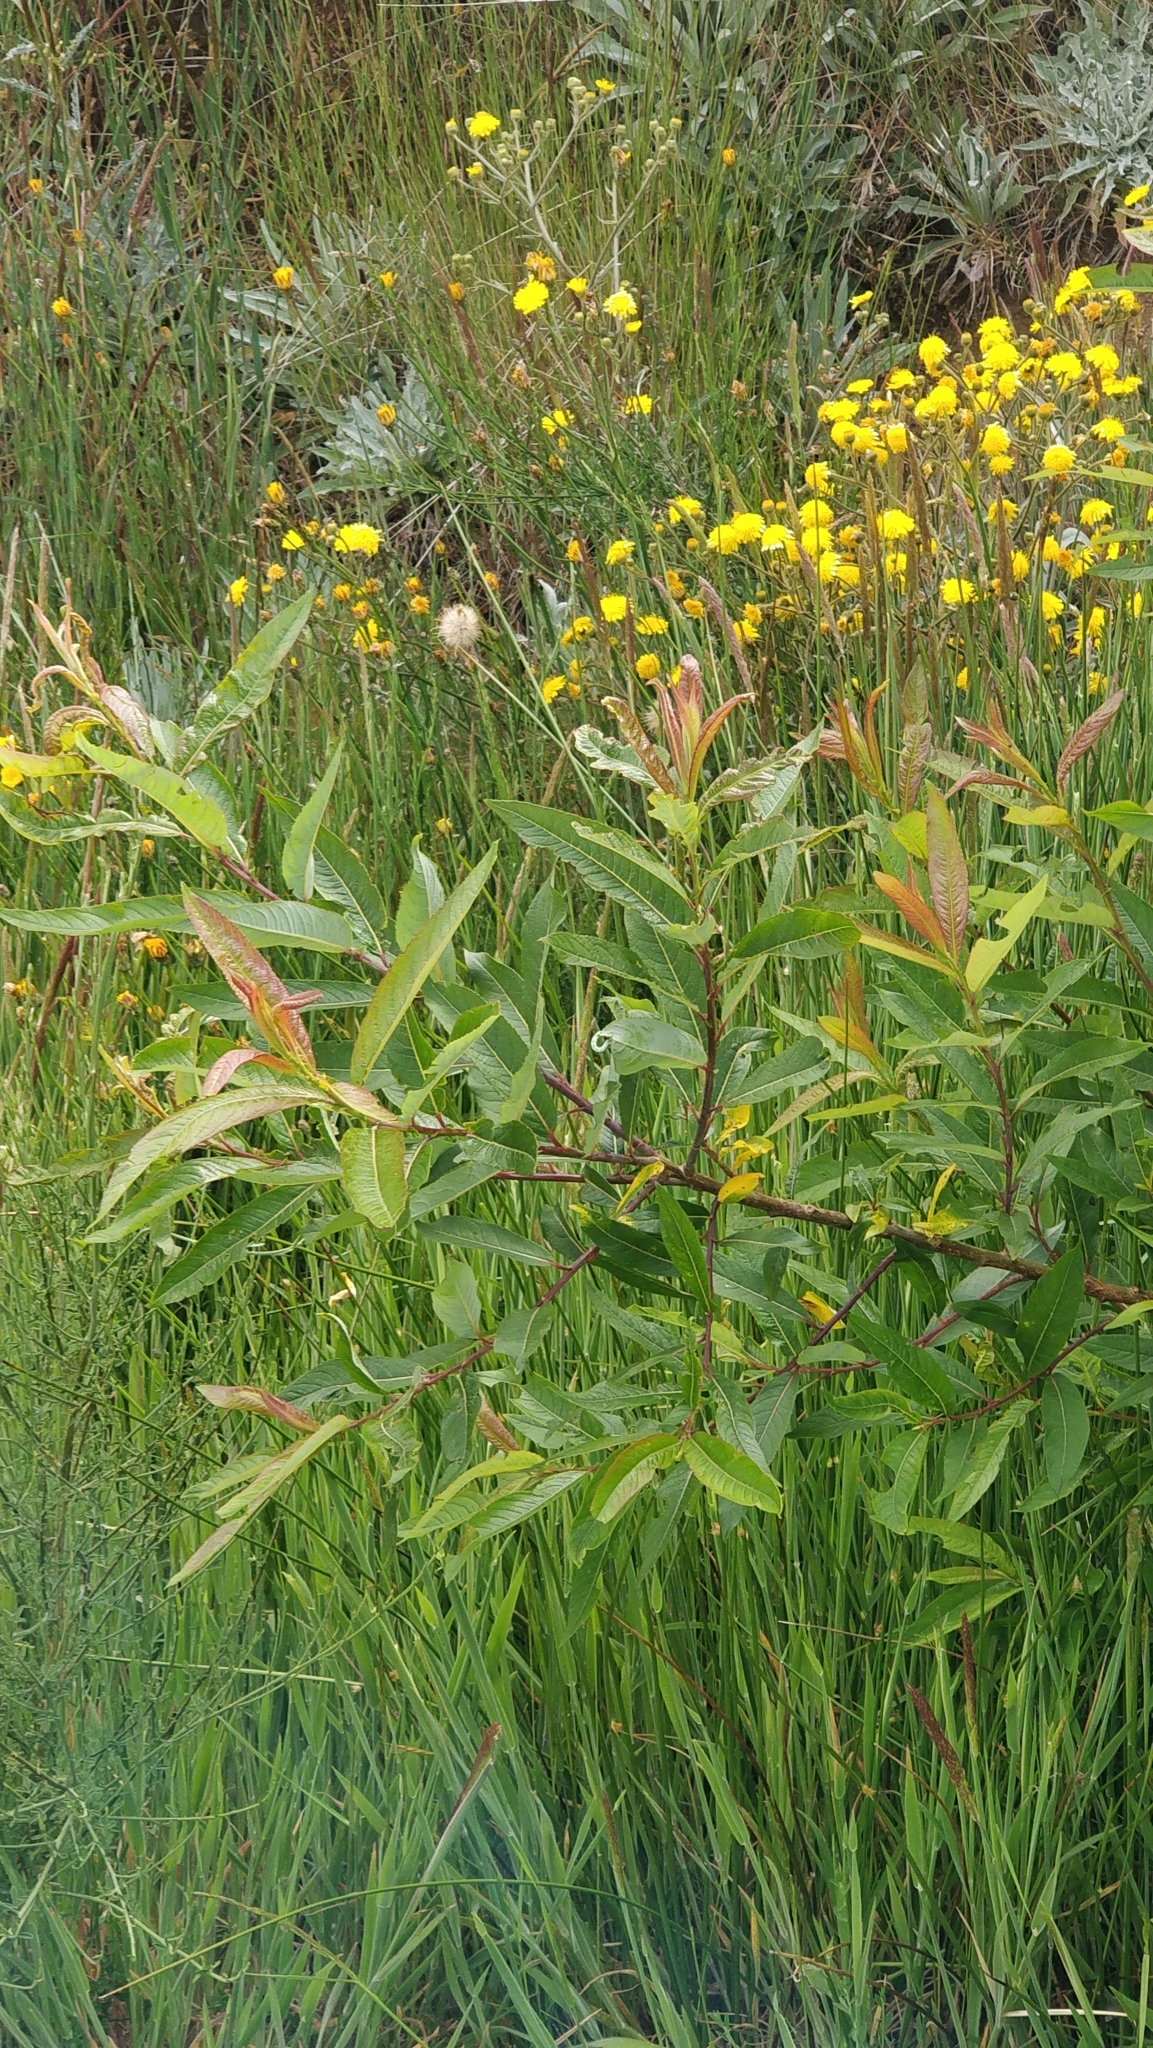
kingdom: Plantae
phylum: Tracheophyta
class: Magnoliopsida
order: Malpighiales
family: Salicaceae
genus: Salix
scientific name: Salix canariensis
